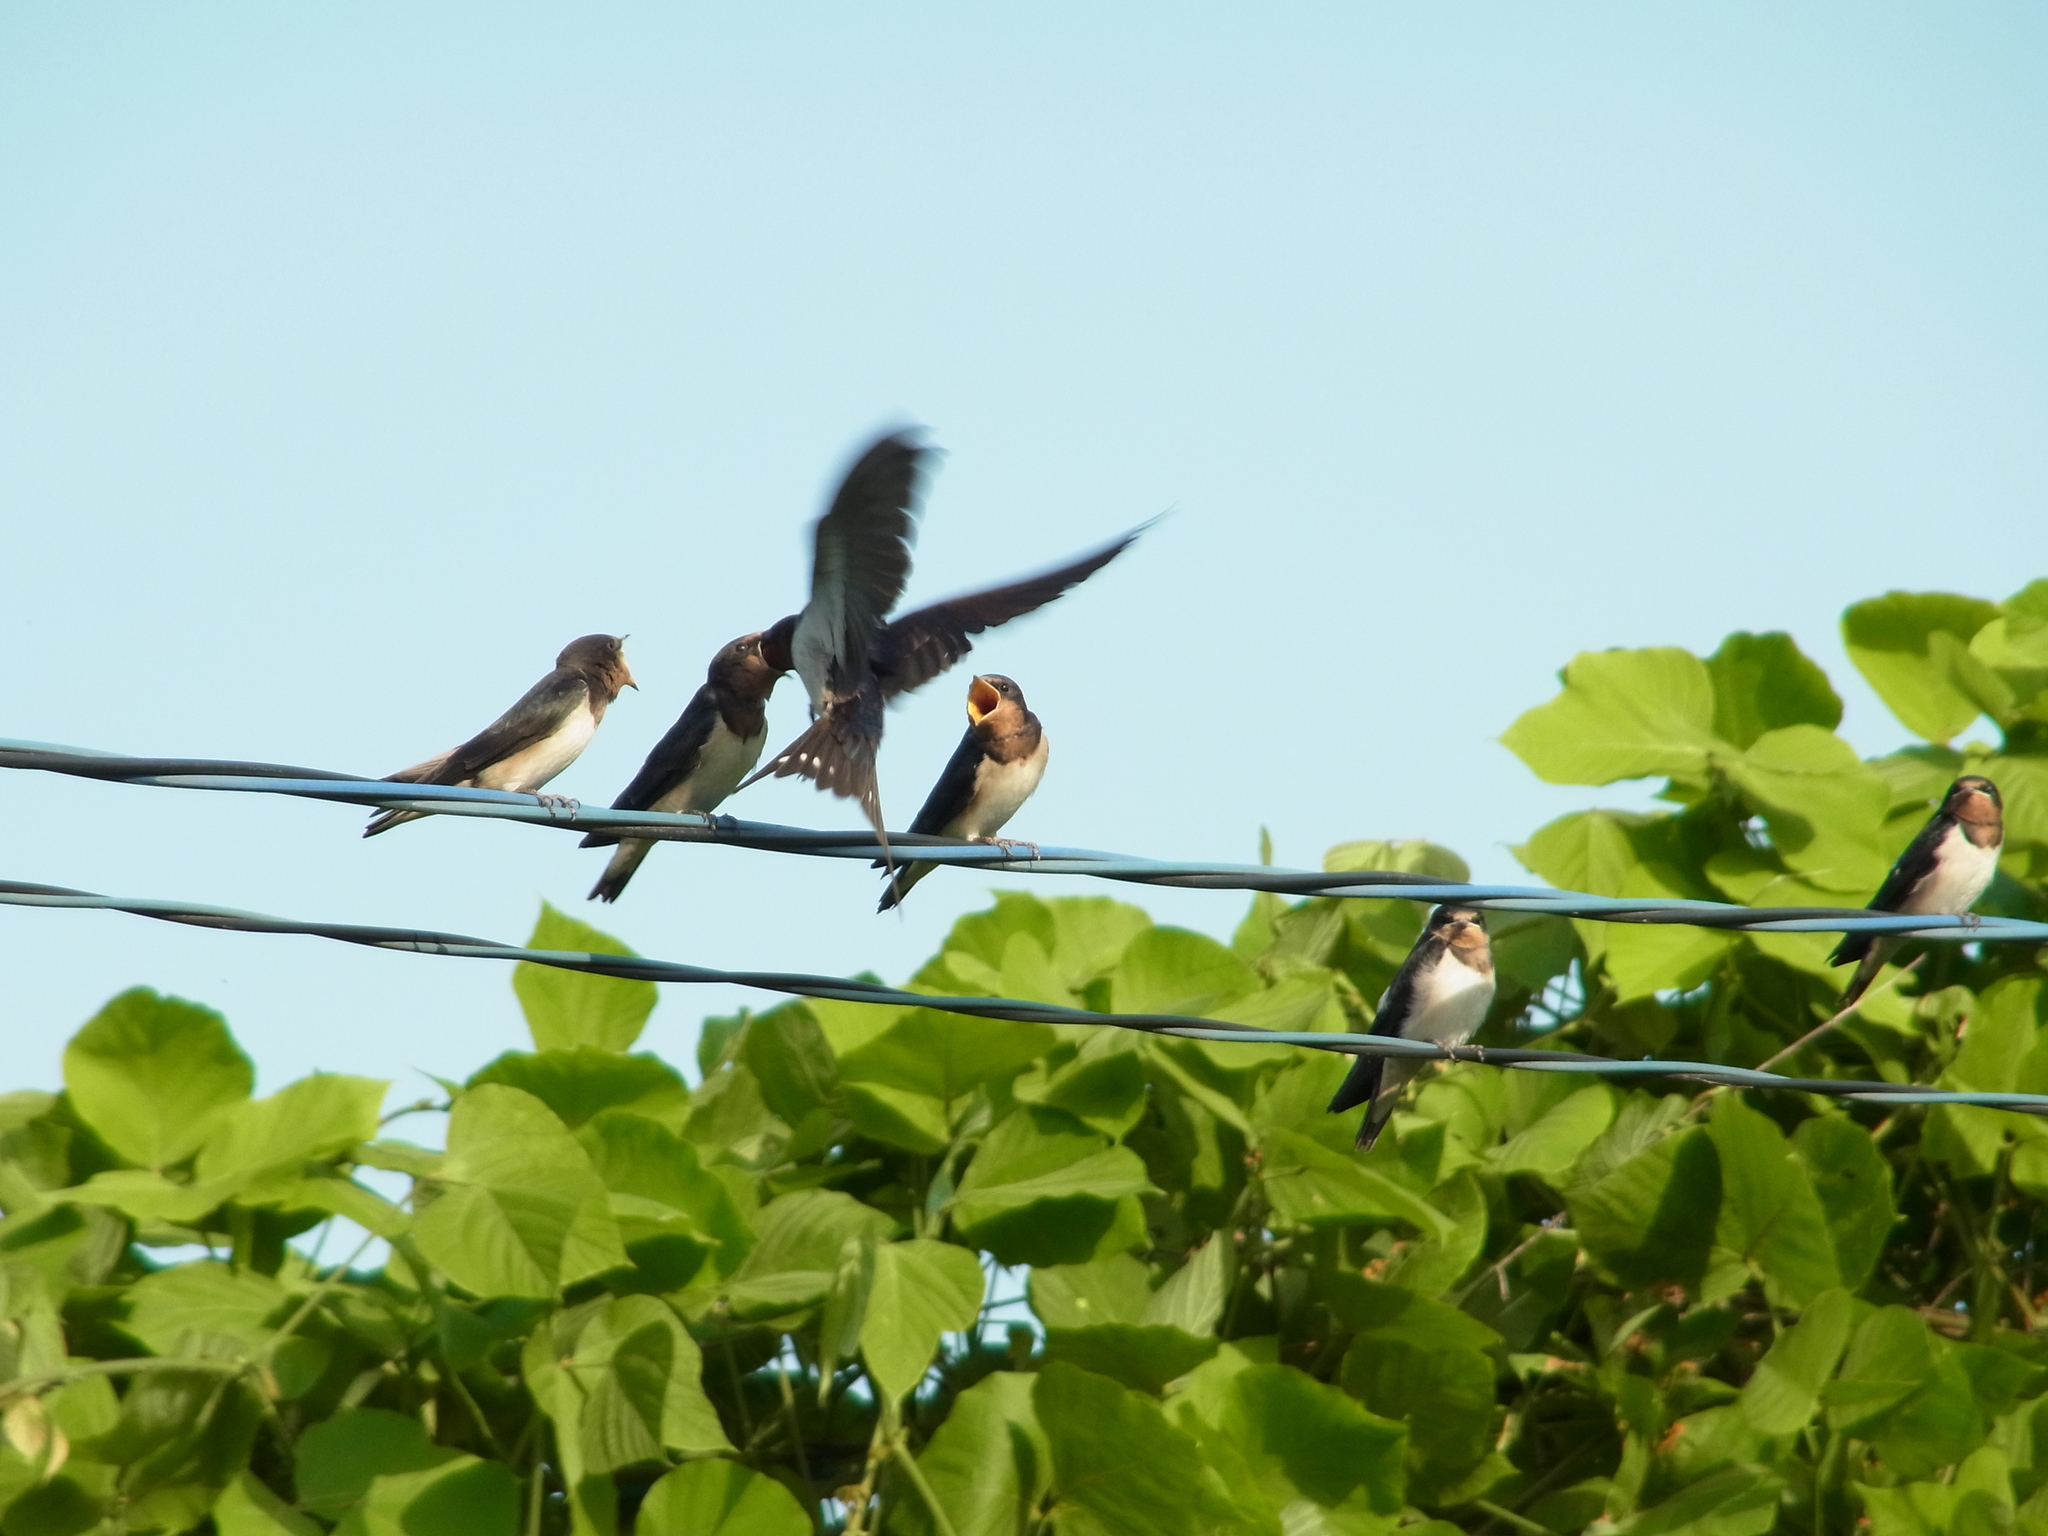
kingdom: Animalia
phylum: Chordata
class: Aves
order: Passeriformes
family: Hirundinidae
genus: Hirundo
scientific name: Hirundo rustica
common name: Barn swallow
